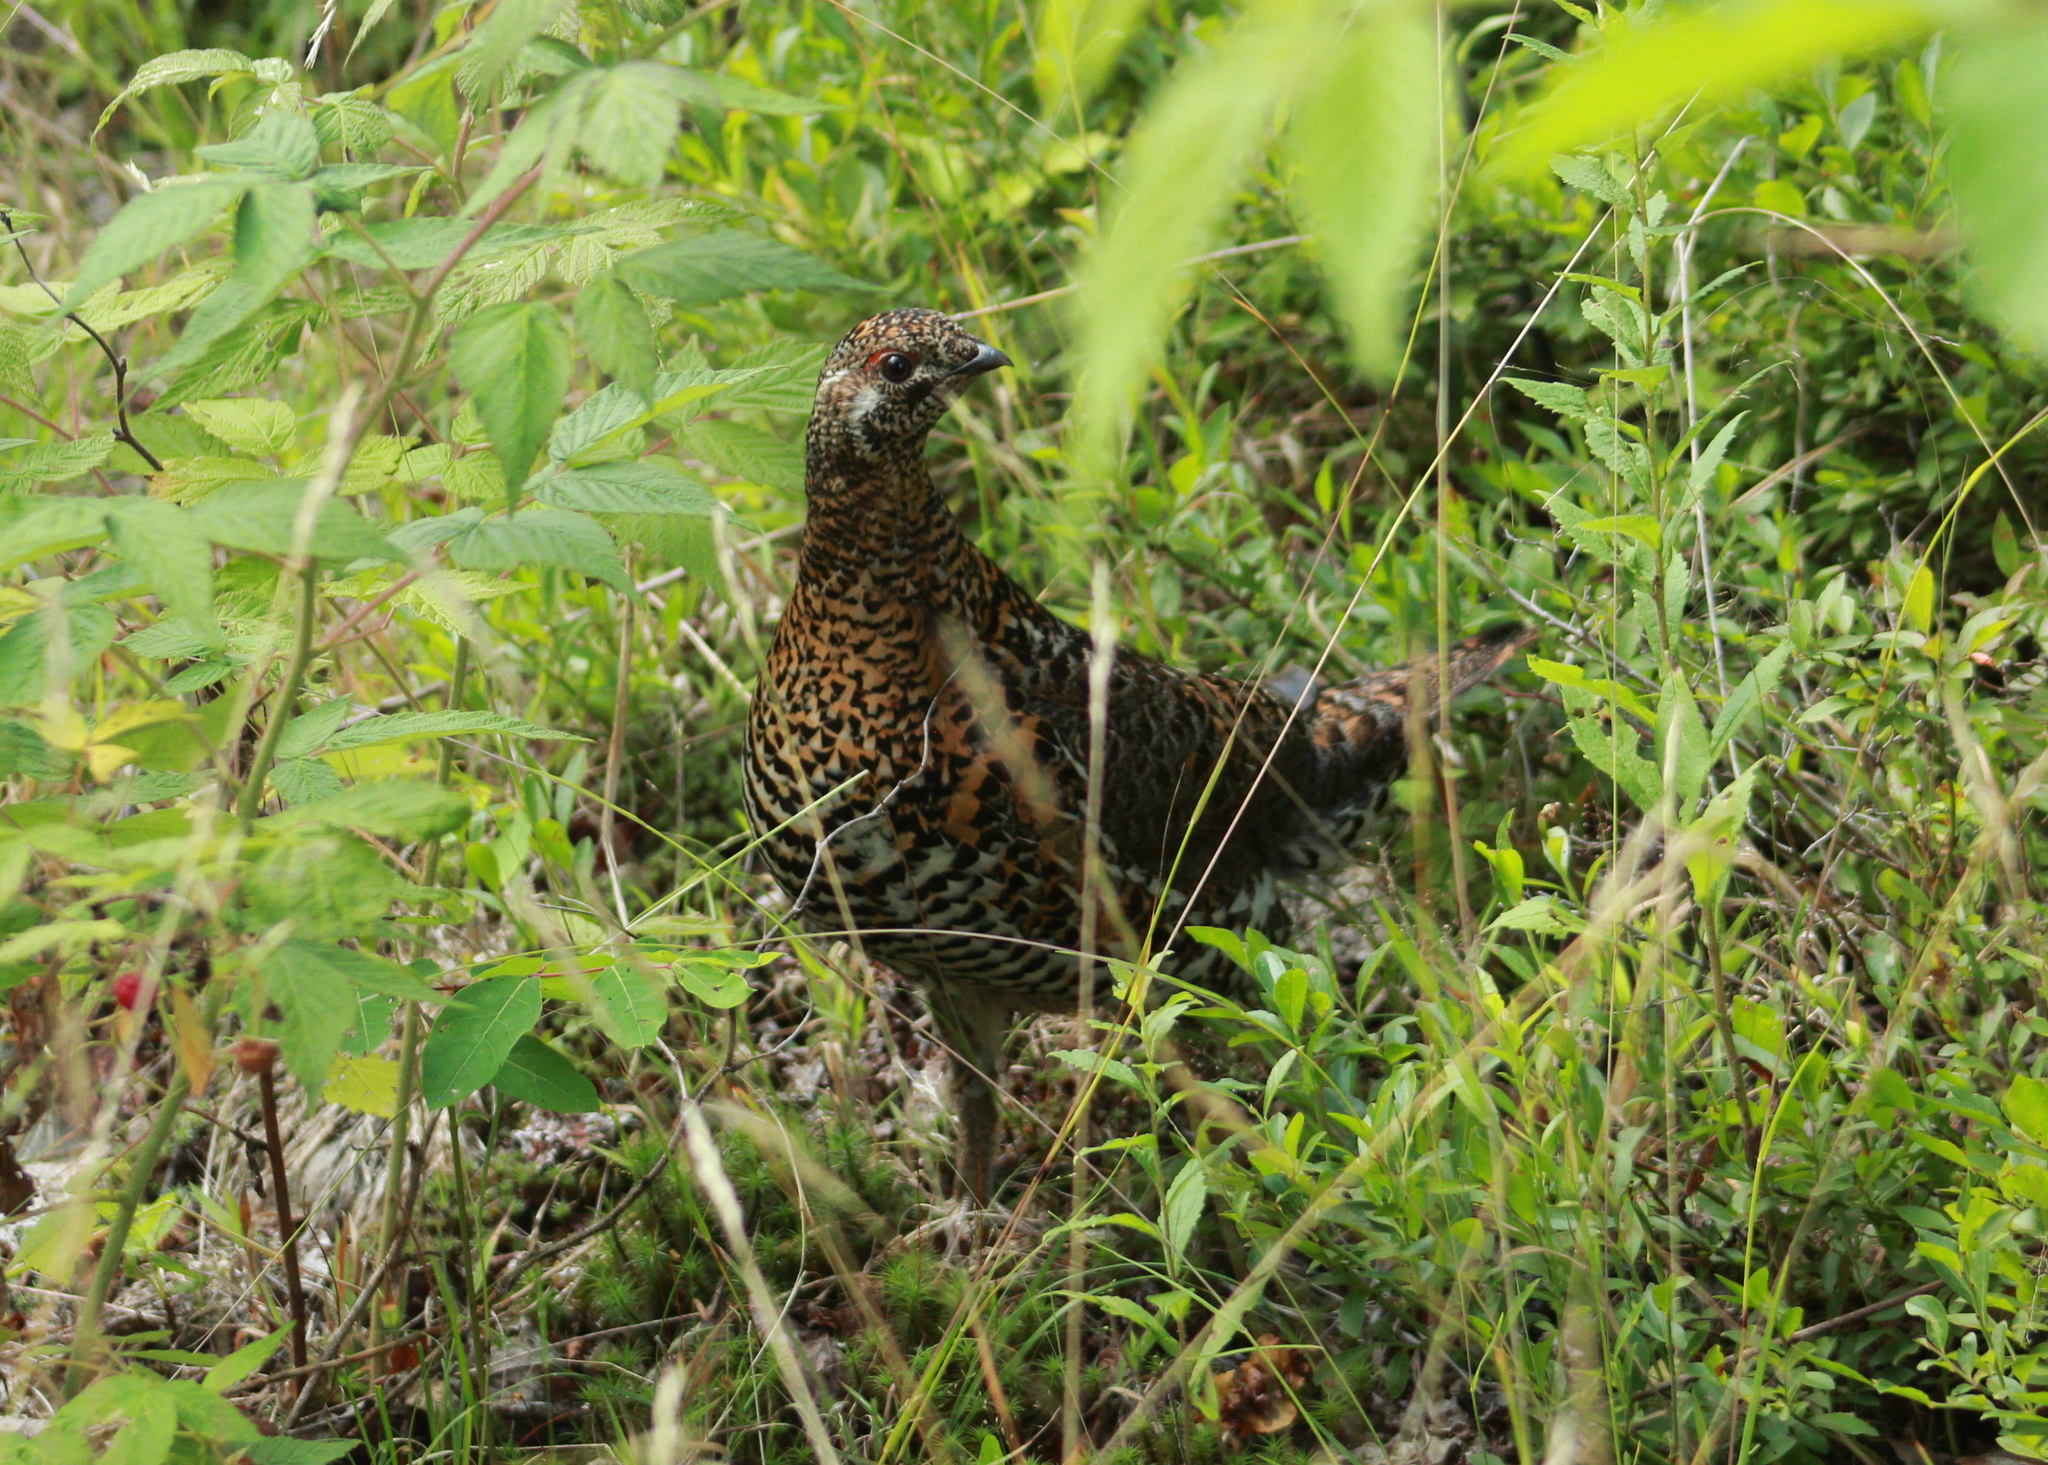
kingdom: Animalia
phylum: Chordata
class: Aves
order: Galliformes
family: Phasianidae
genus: Canachites
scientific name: Canachites canadensis
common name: Spruce grouse
